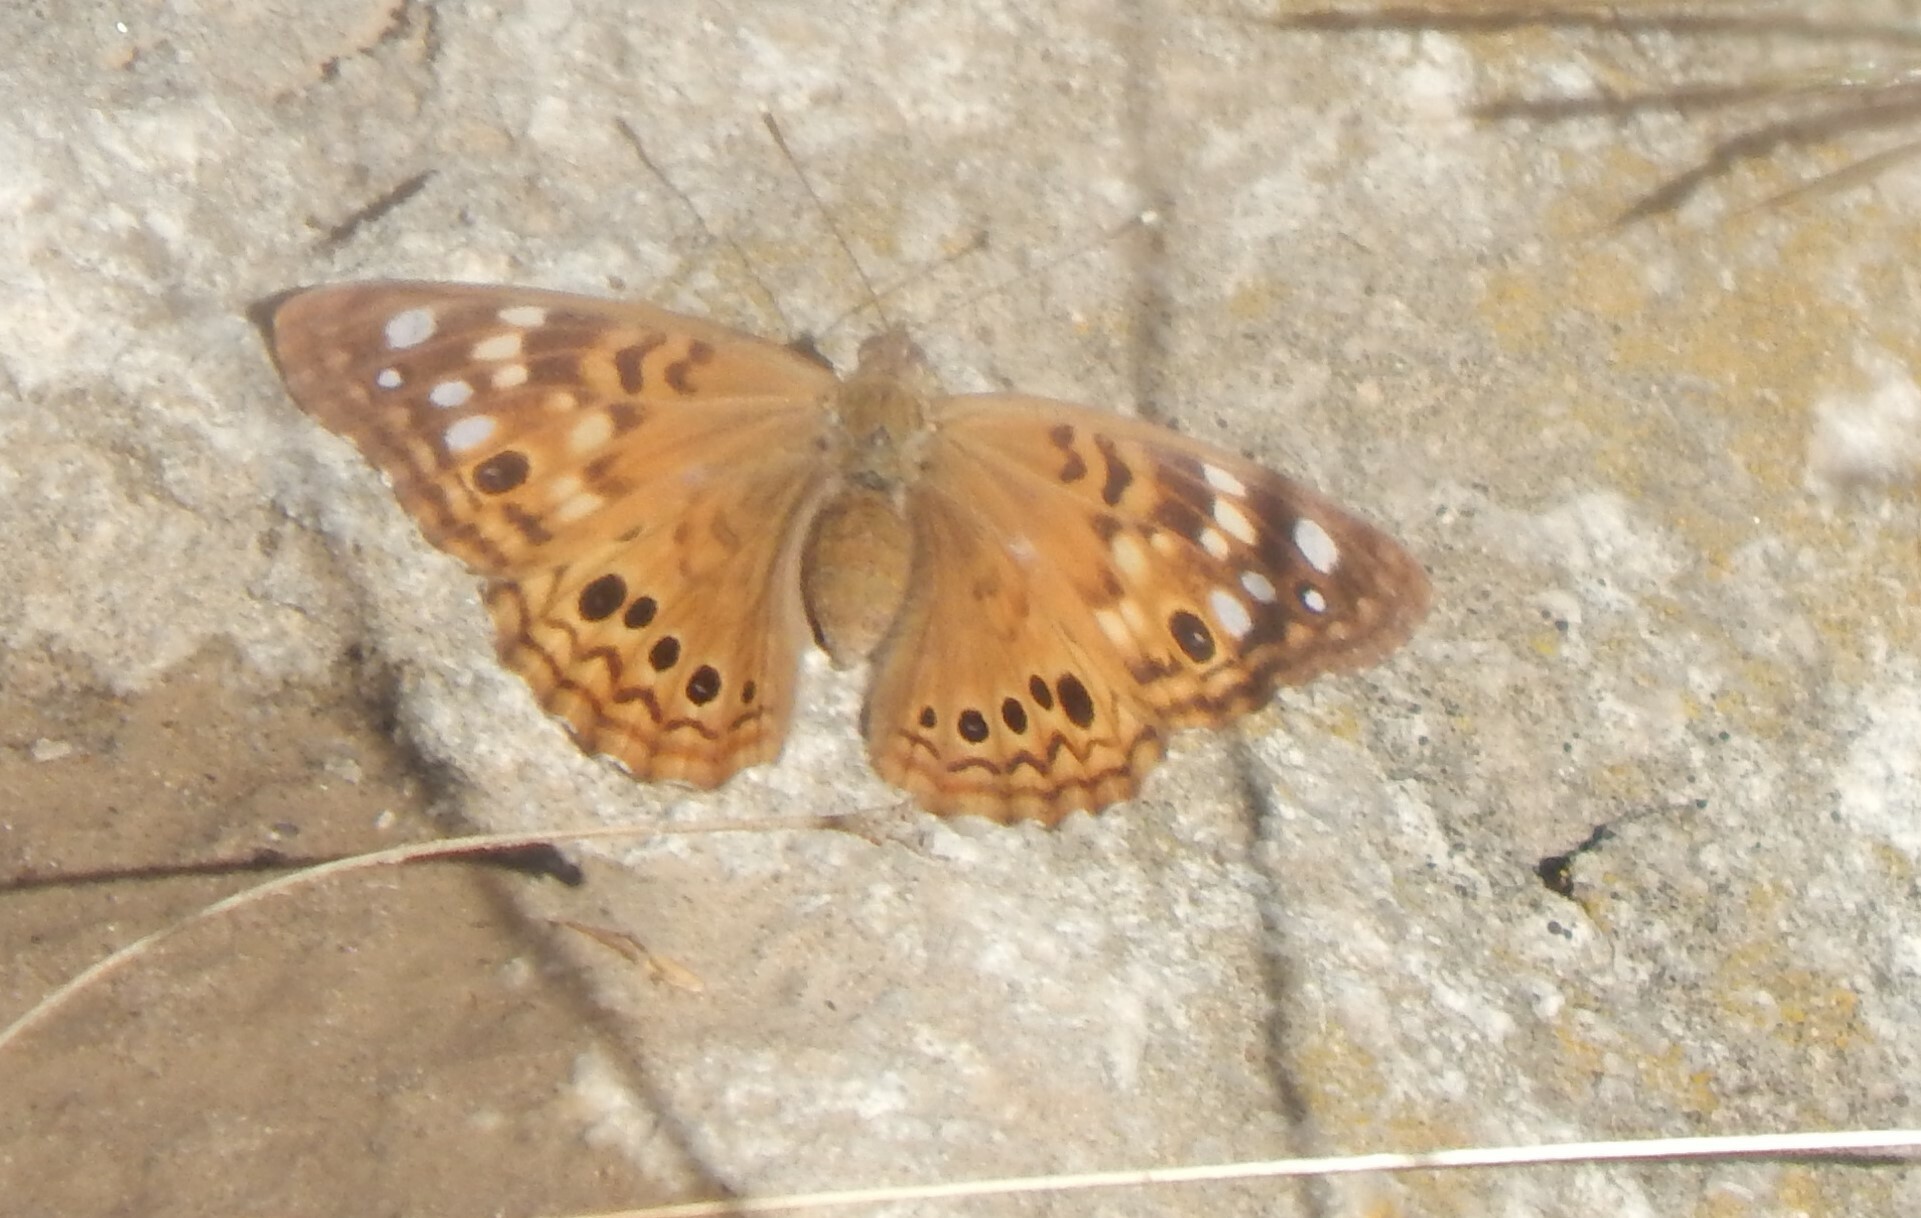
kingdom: Animalia
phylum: Arthropoda
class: Insecta
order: Lepidoptera
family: Nymphalidae
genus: Asterocampa
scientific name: Asterocampa celtis
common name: Hackberry emperor
